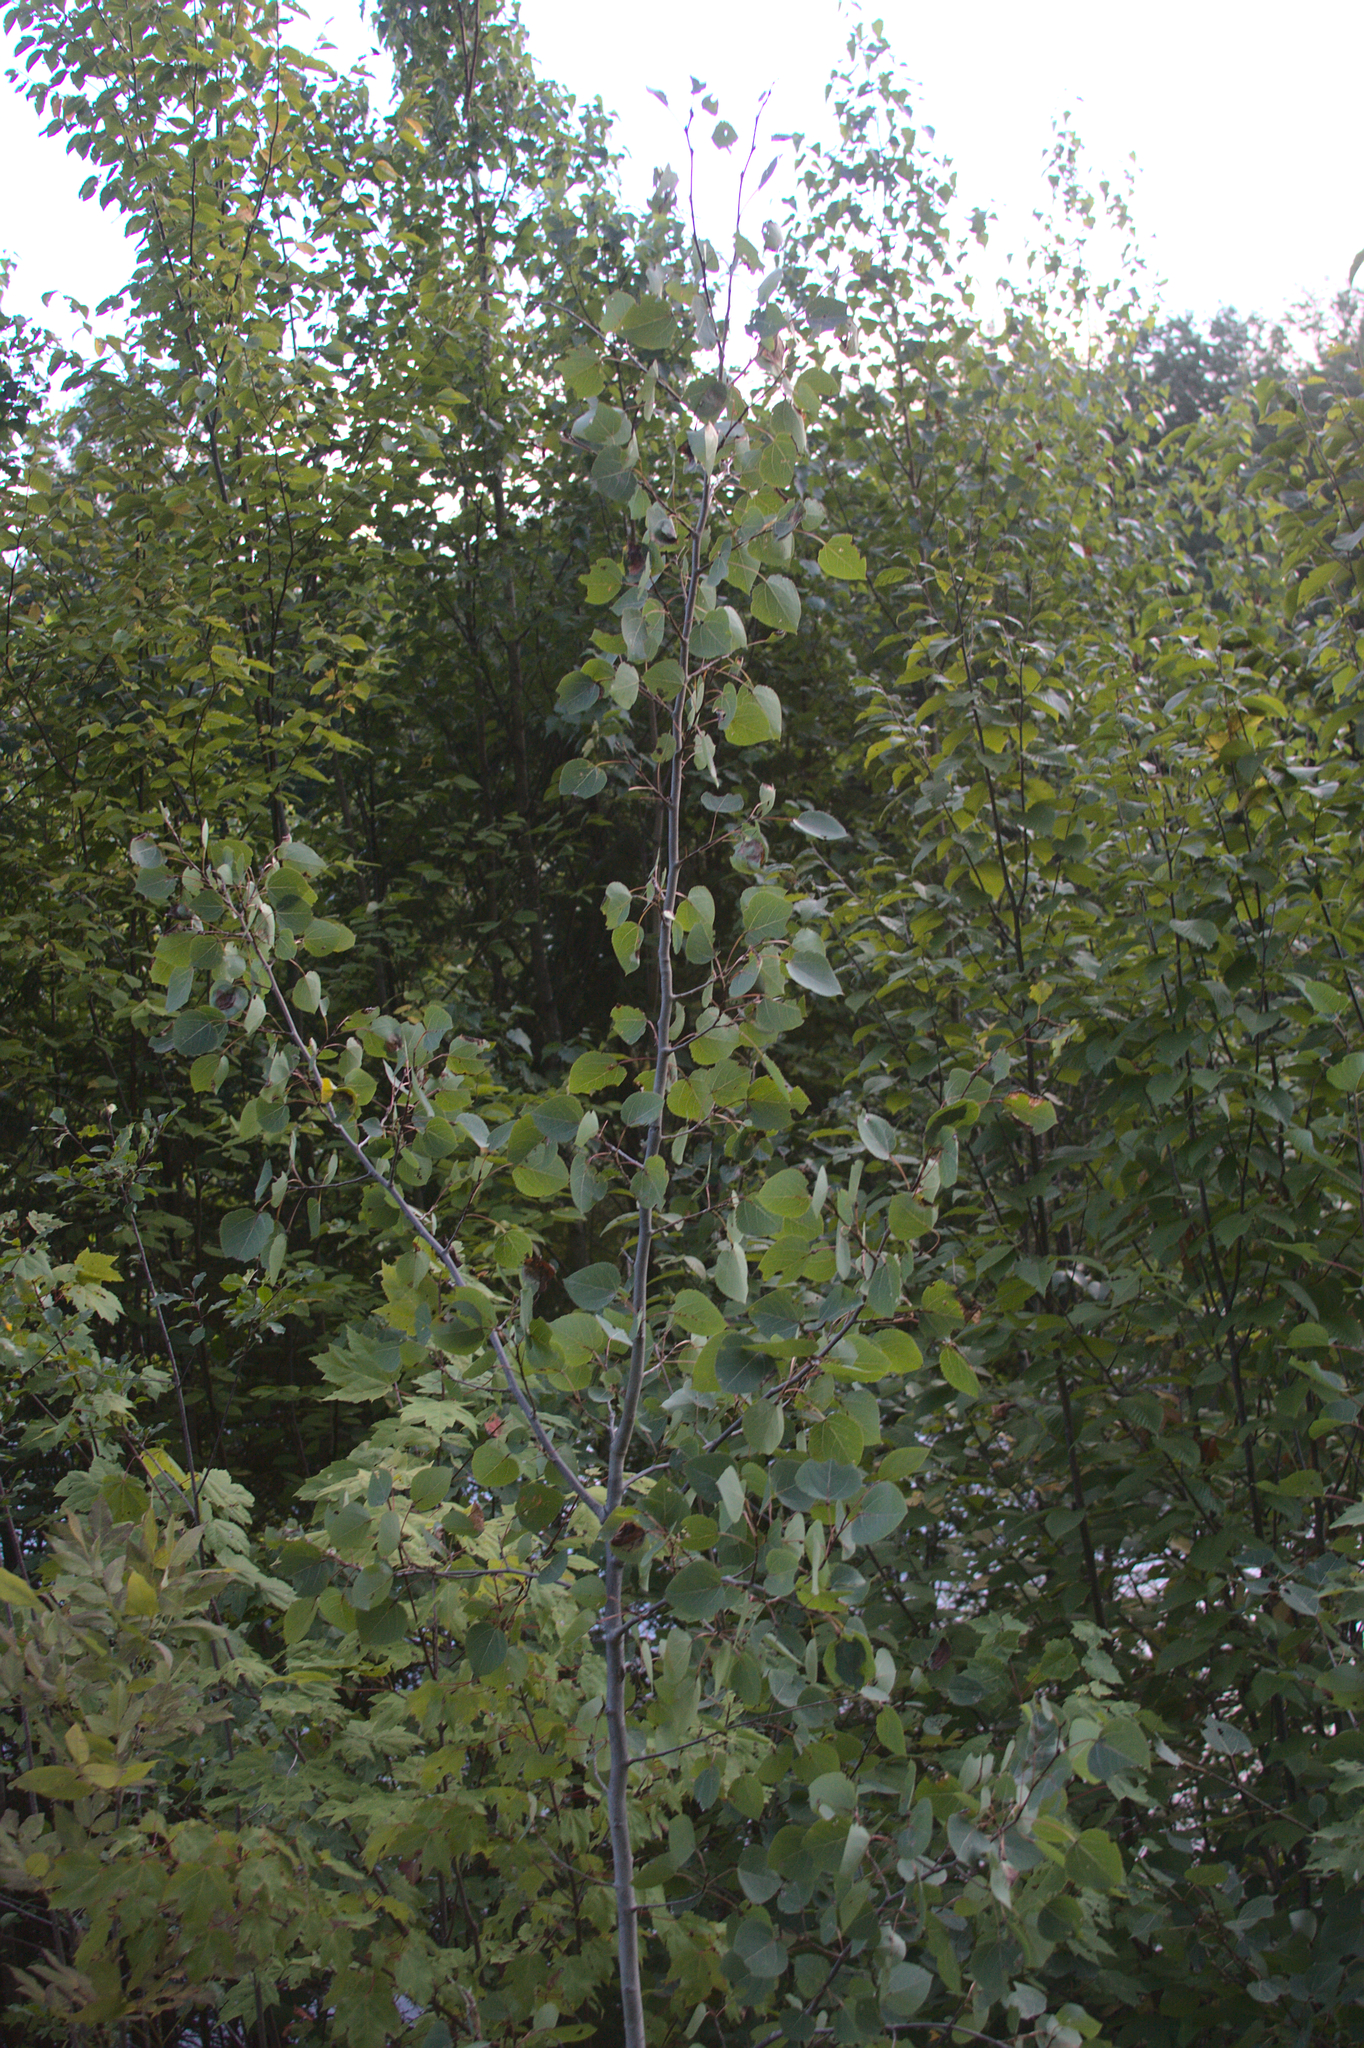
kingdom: Plantae
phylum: Tracheophyta
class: Magnoliopsida
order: Malpighiales
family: Salicaceae
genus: Populus
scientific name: Populus tremuloides
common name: Quaking aspen
